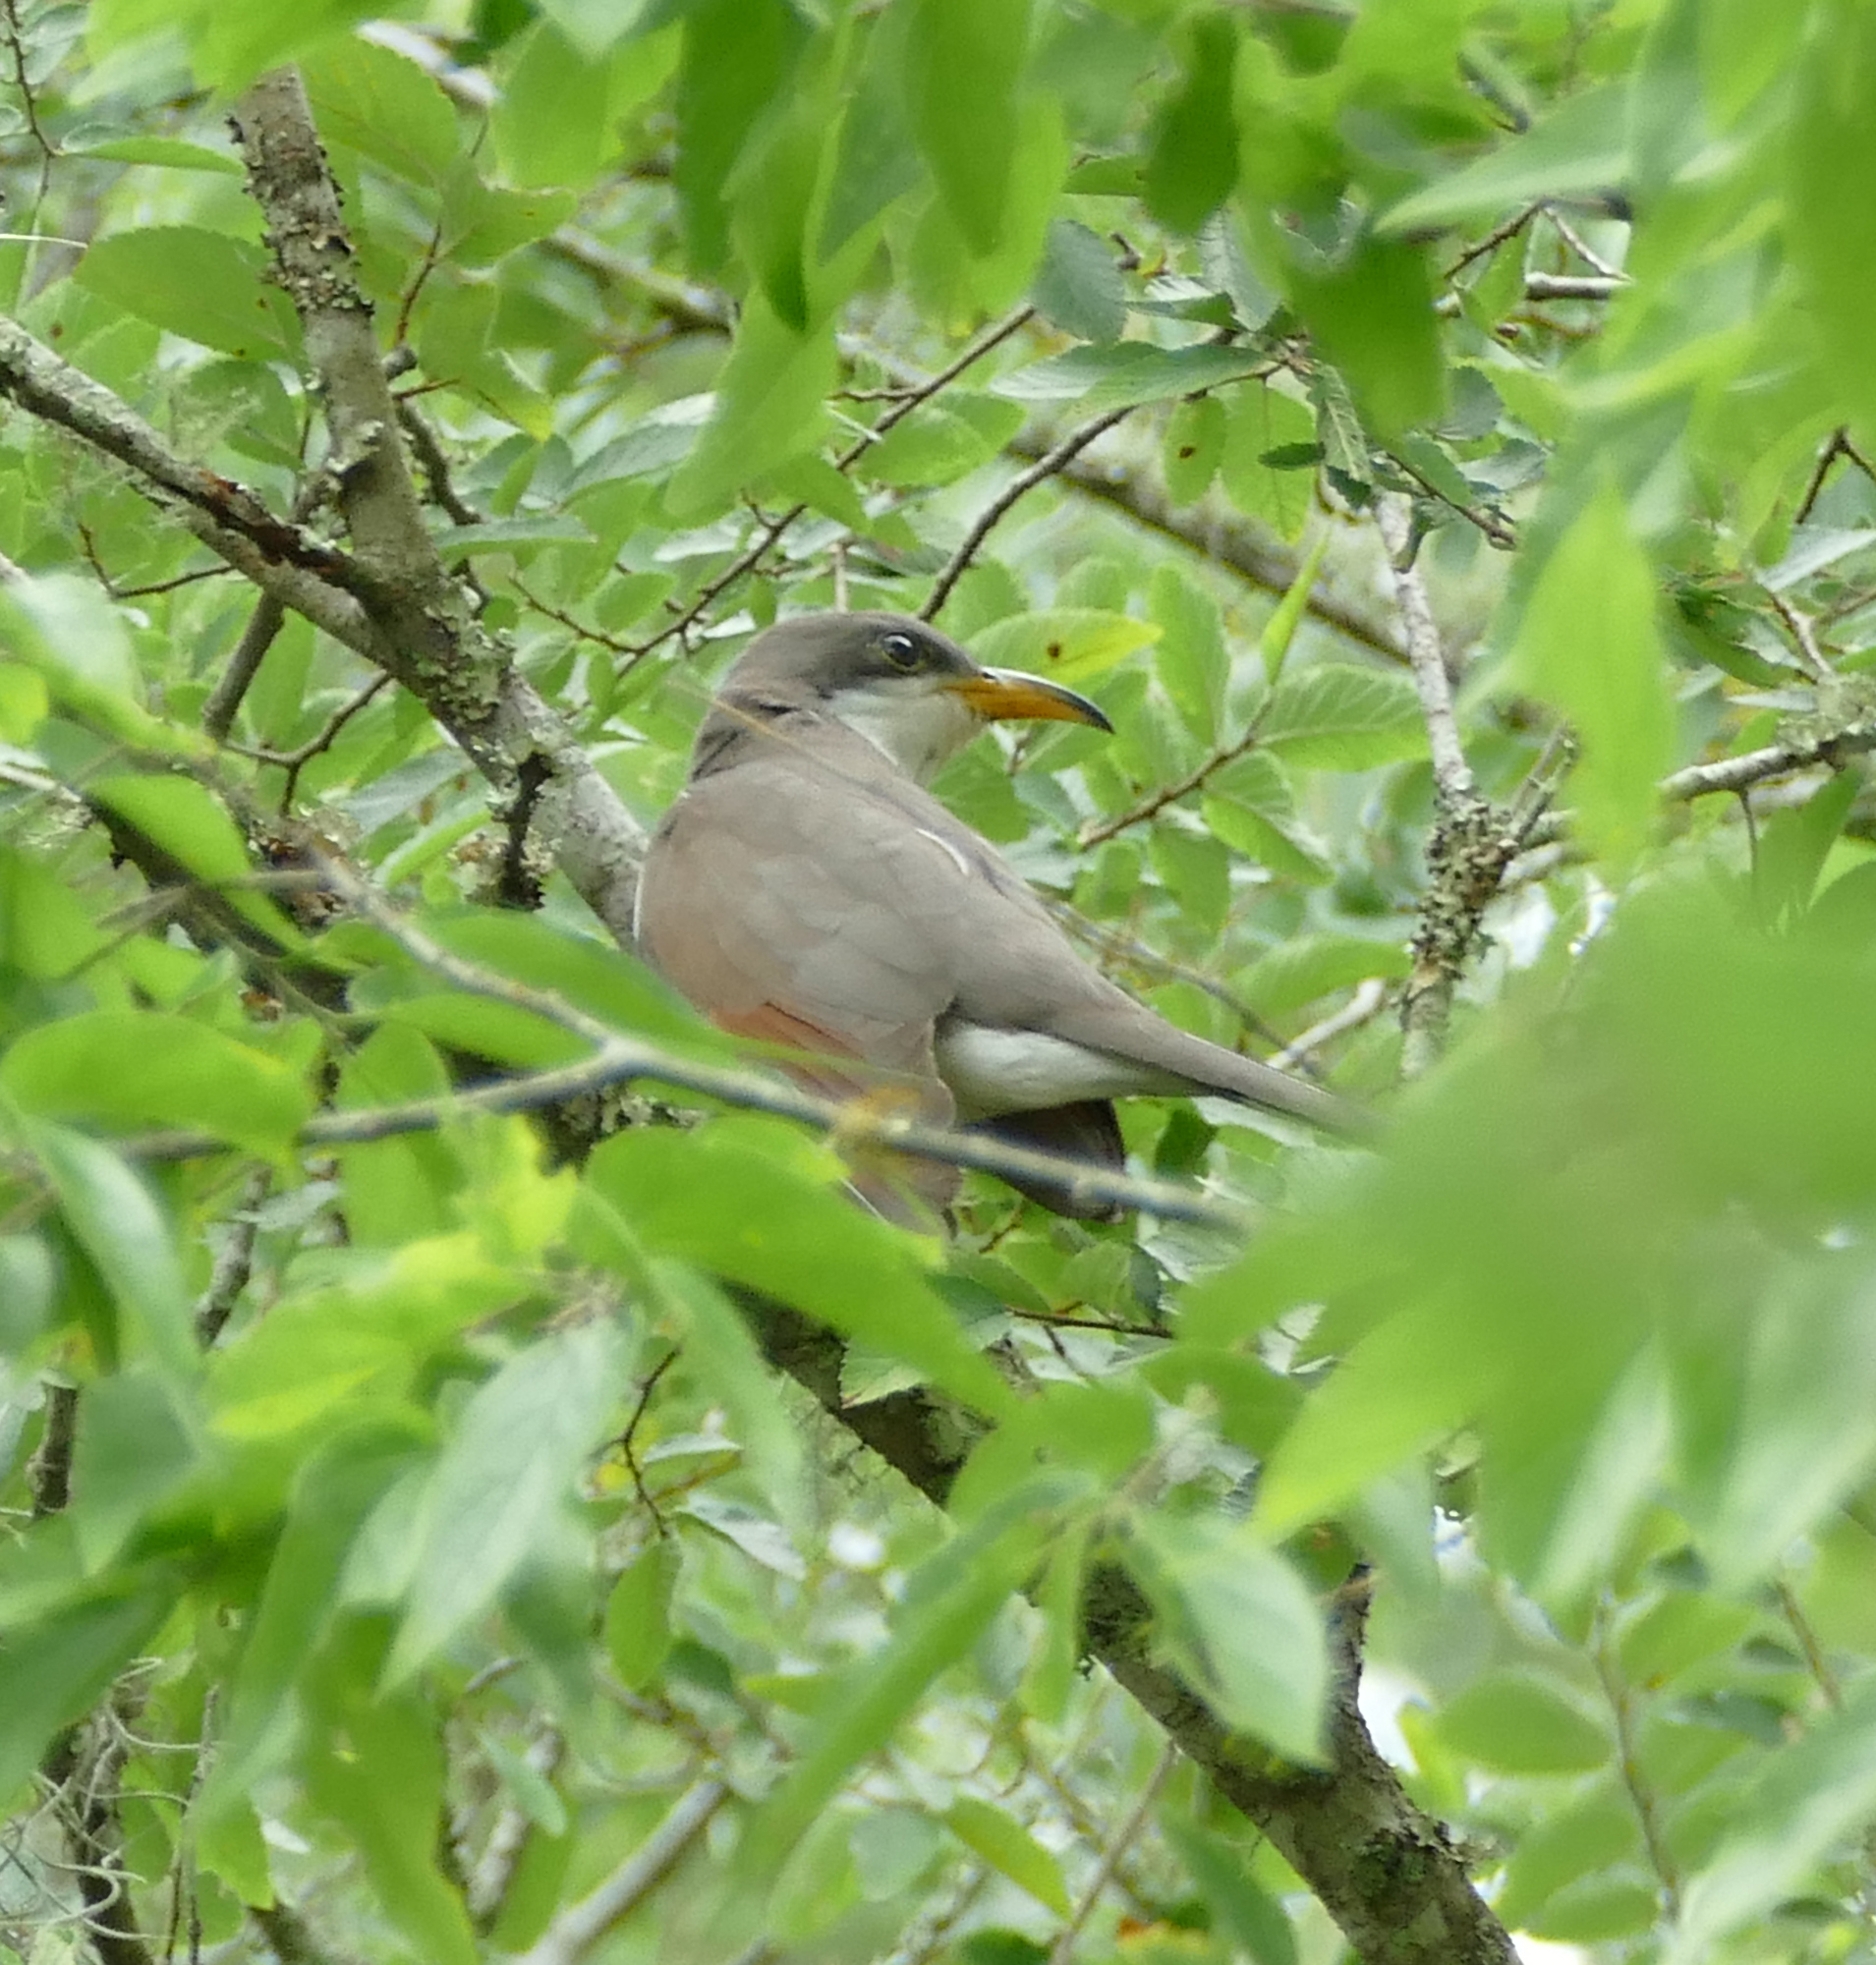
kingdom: Animalia
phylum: Chordata
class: Aves
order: Cuculiformes
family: Cuculidae
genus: Coccyzus
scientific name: Coccyzus americanus
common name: Yellow-billed cuckoo
